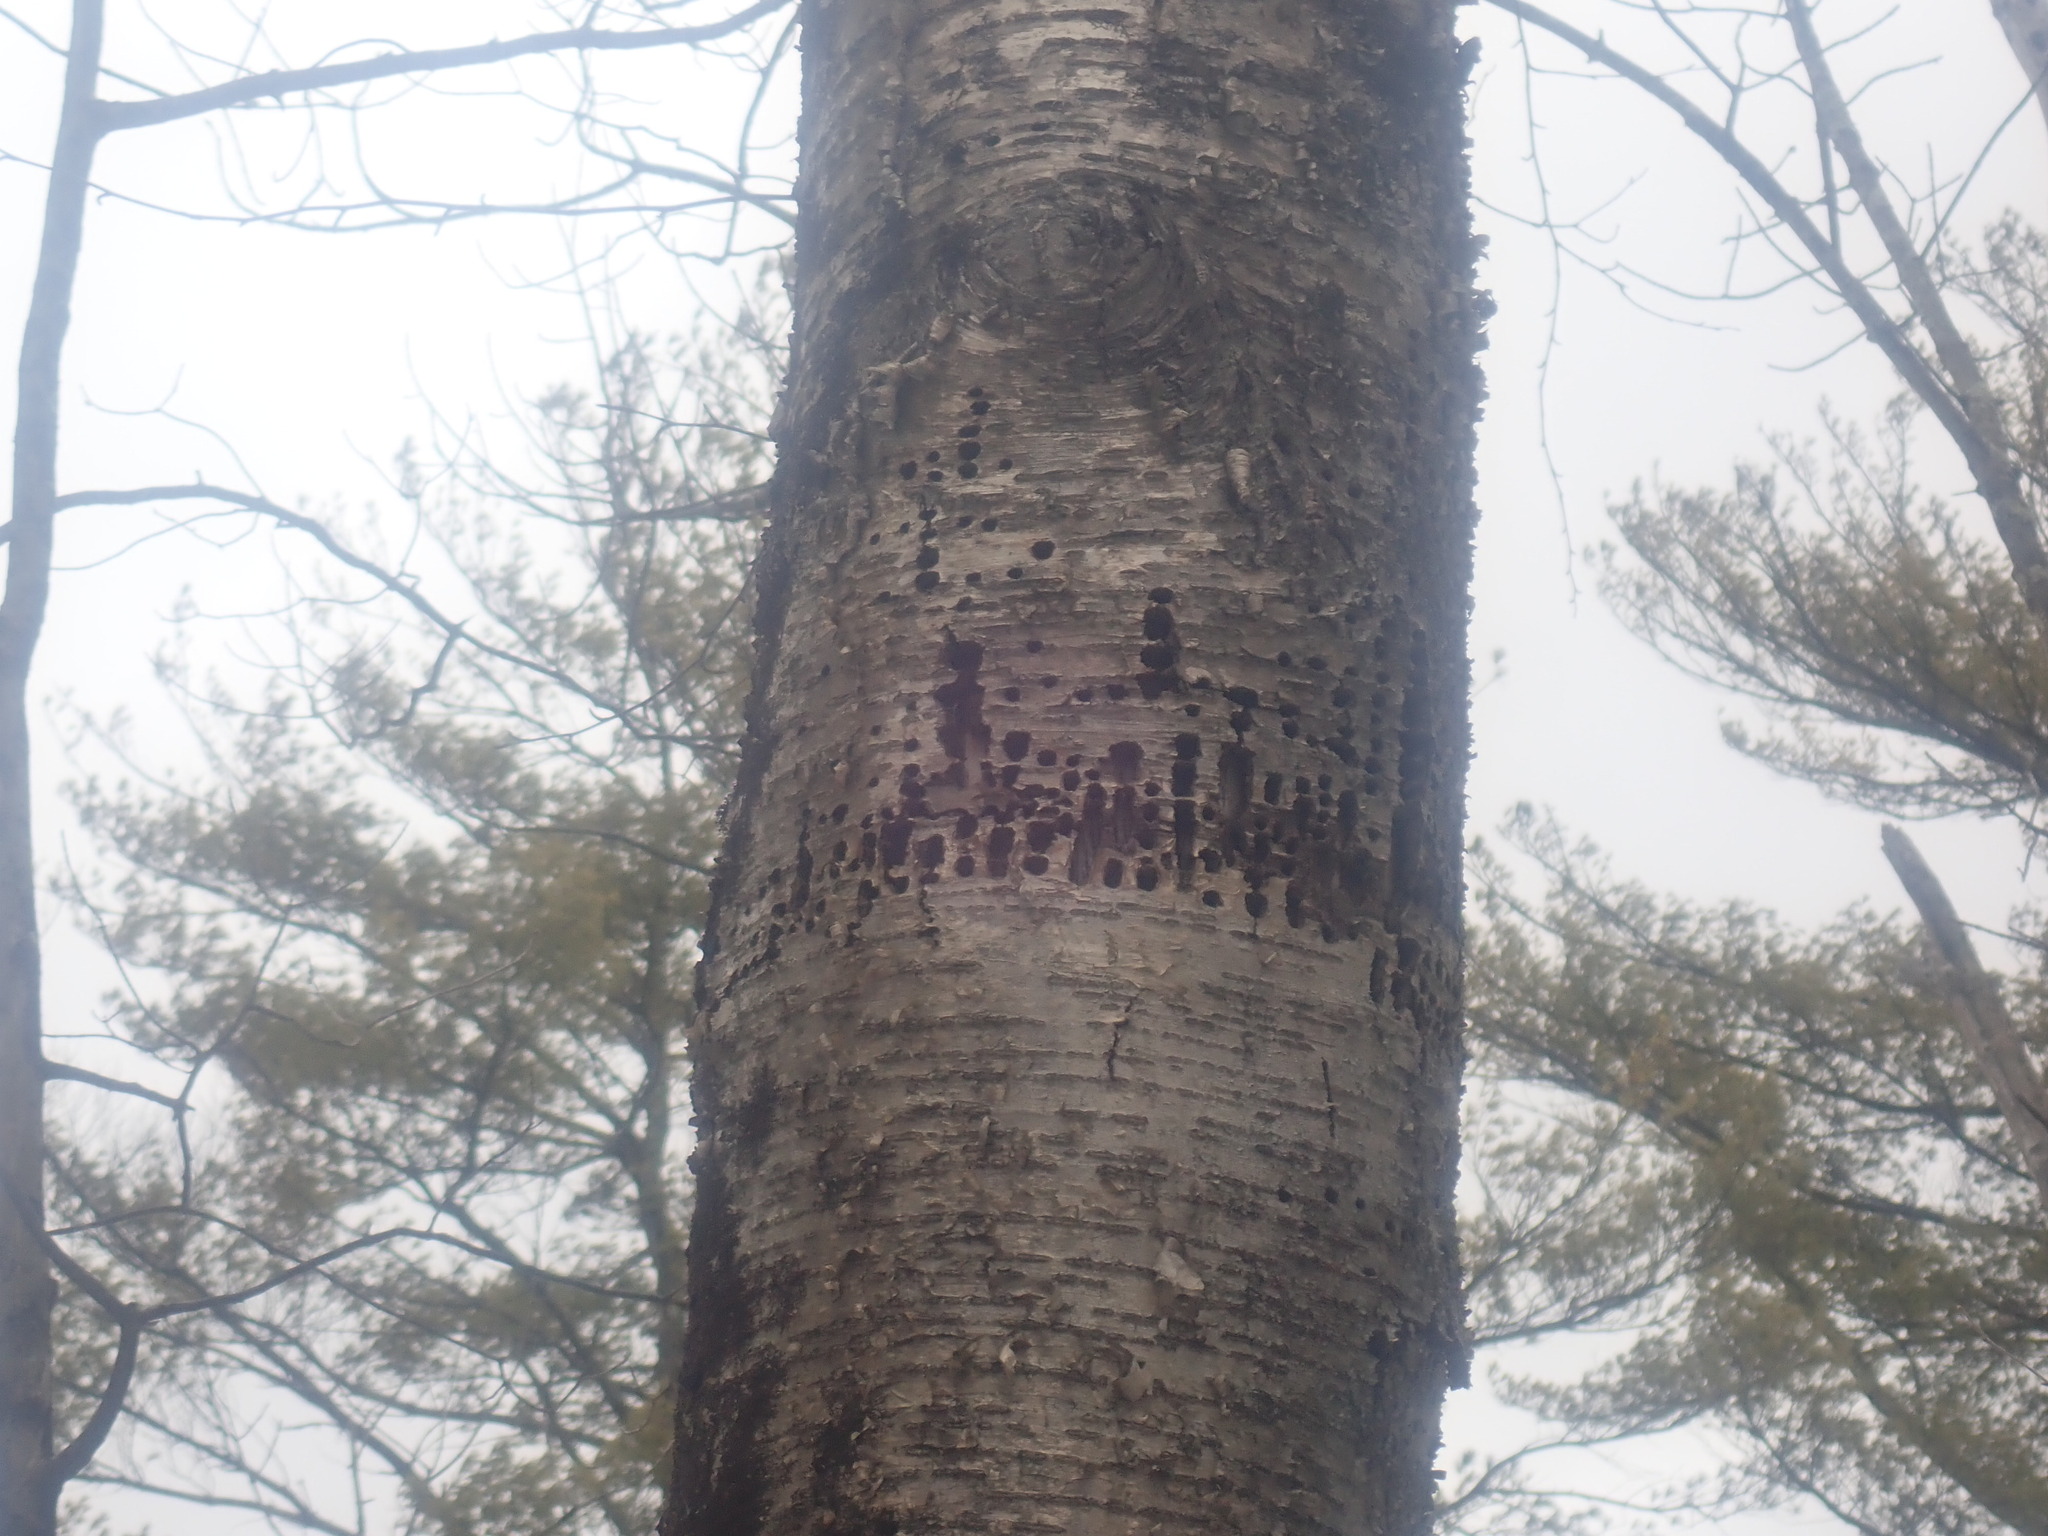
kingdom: Animalia
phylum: Chordata
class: Aves
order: Piciformes
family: Picidae
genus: Sphyrapicus
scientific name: Sphyrapicus varius
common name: Yellow-bellied sapsucker
